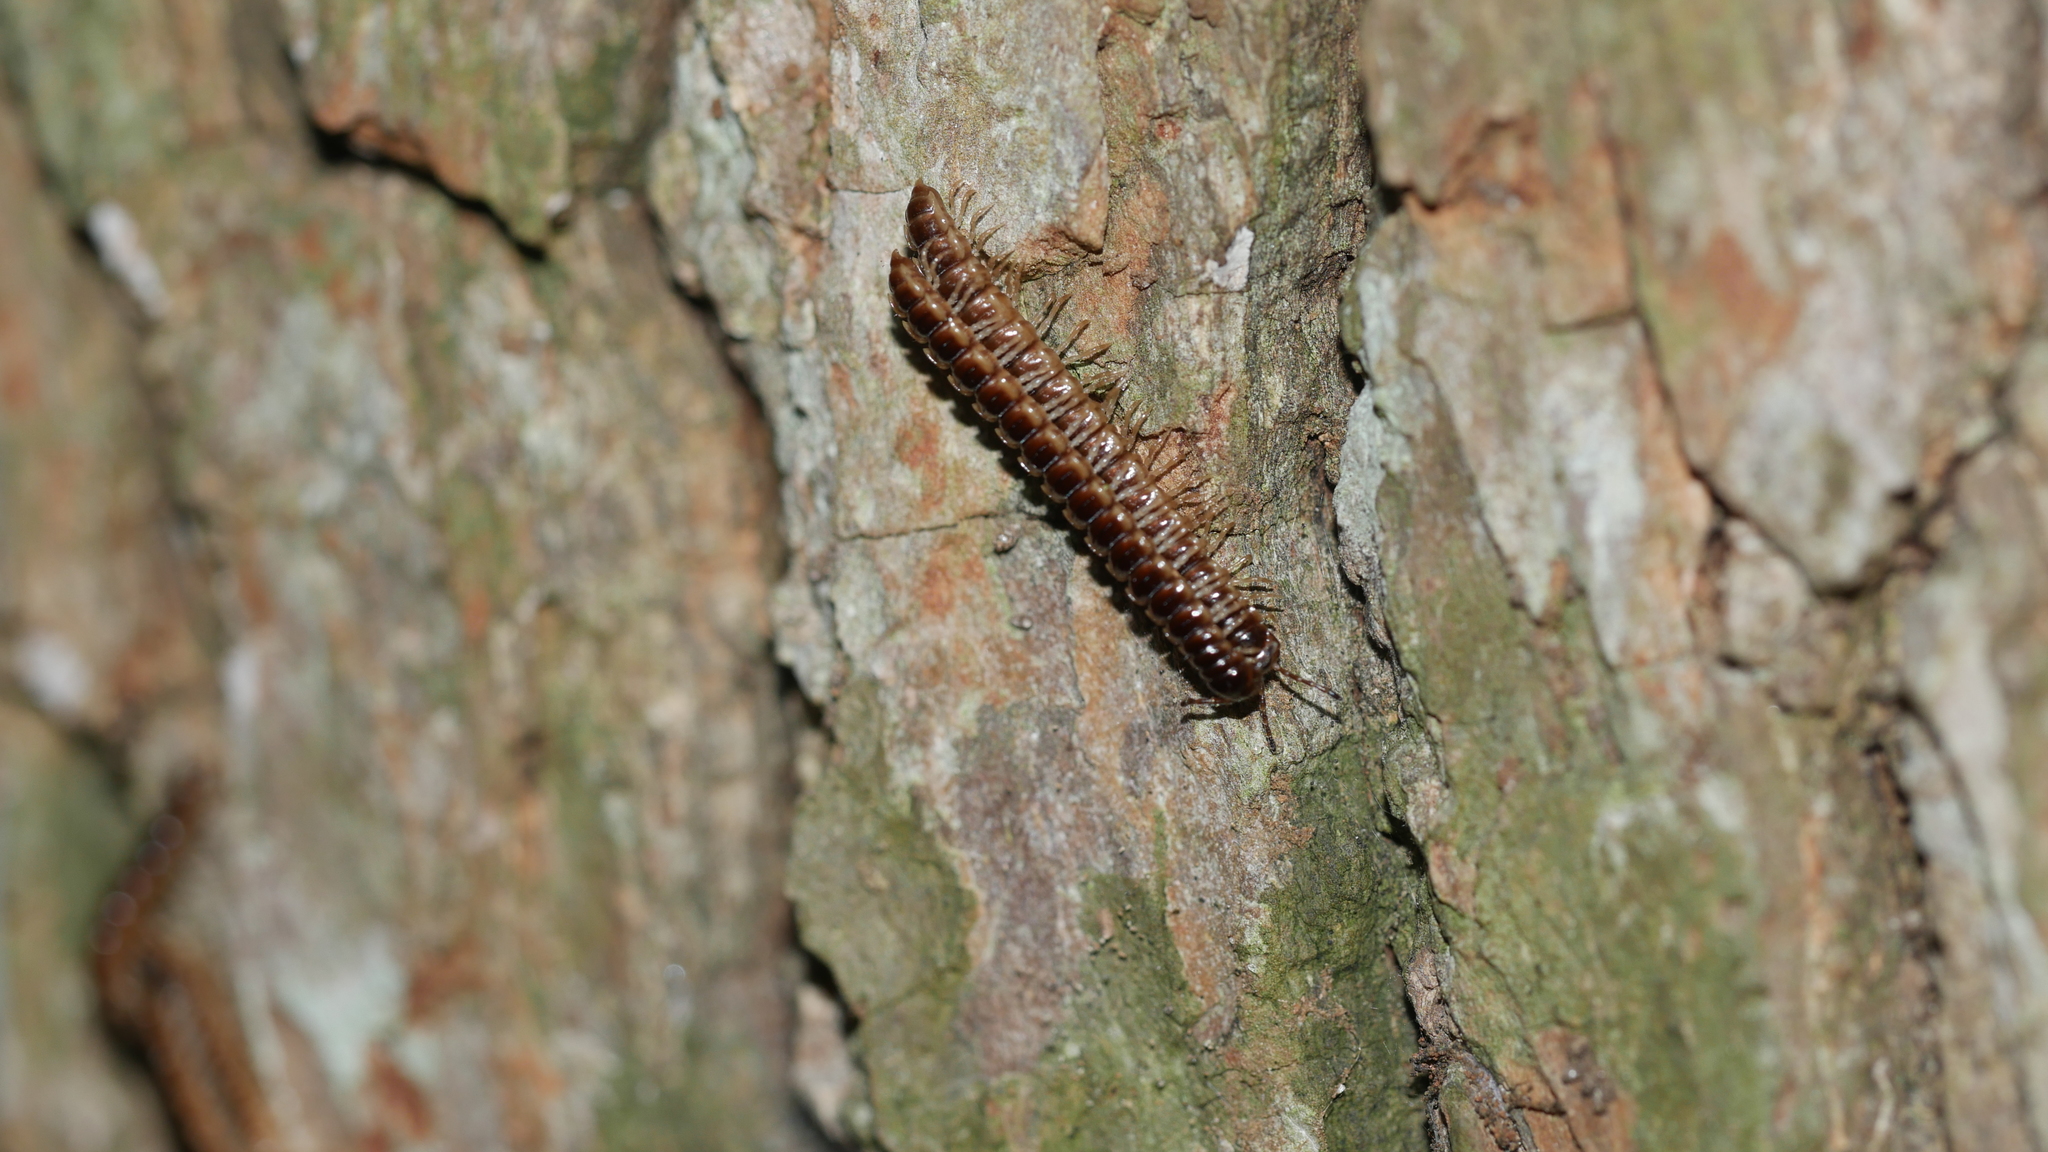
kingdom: Animalia
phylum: Arthropoda
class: Diplopoda
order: Polydesmida
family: Paradoxosomatidae
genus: Oxidus
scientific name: Oxidus gracilis
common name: Greenhouse millipede
